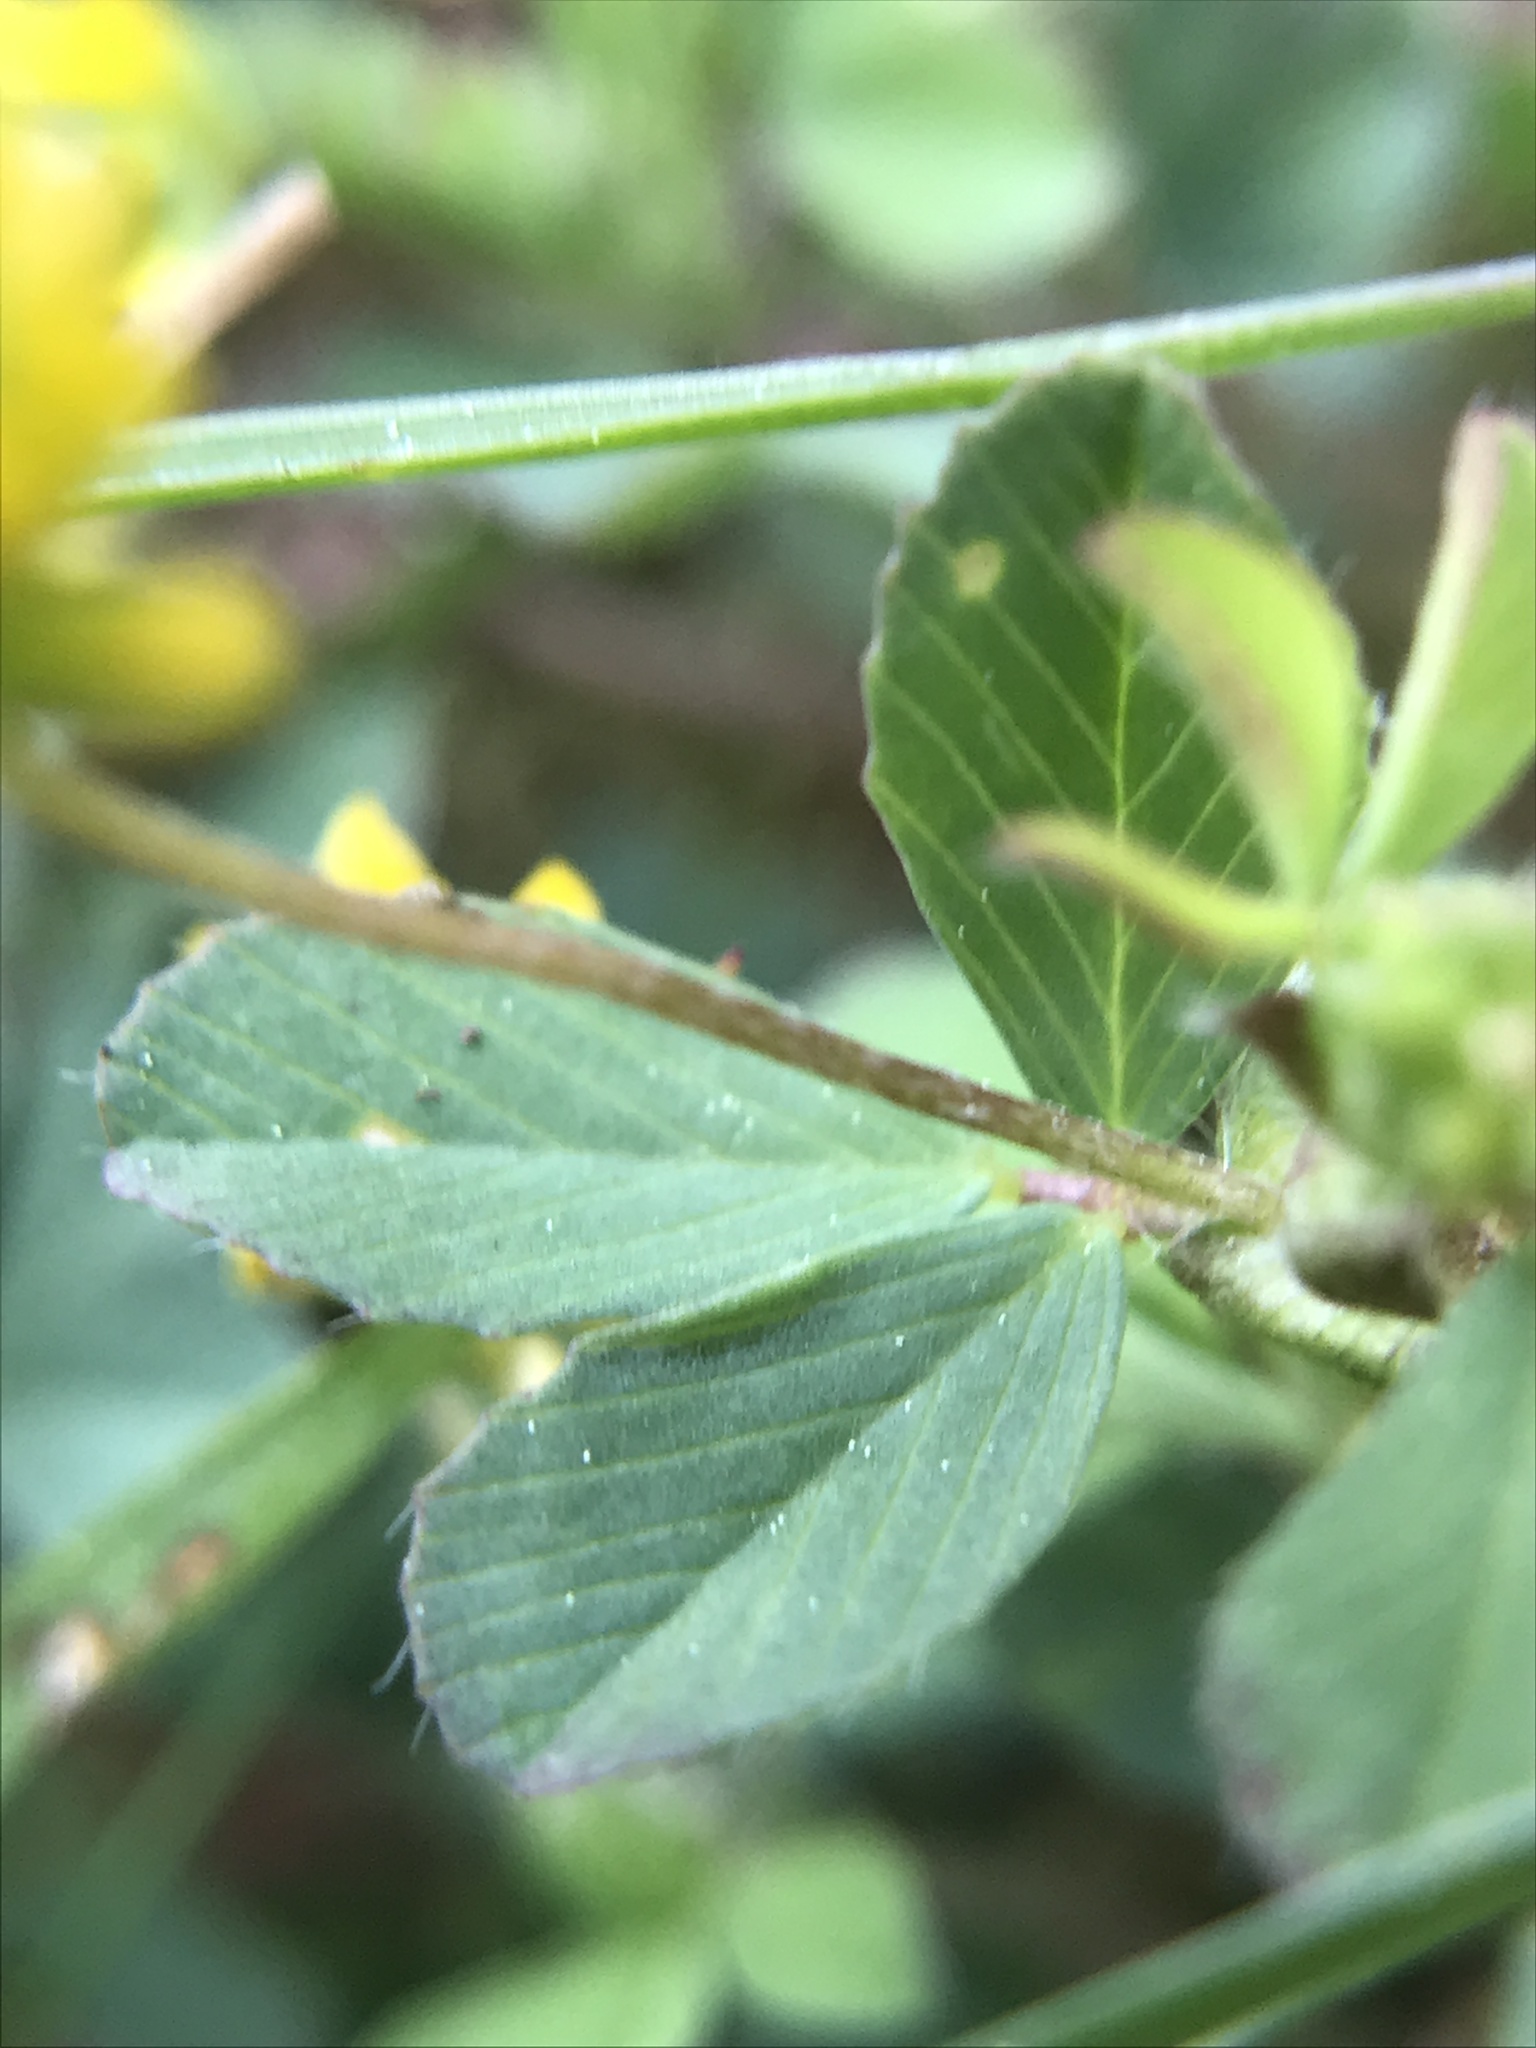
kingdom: Plantae
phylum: Tracheophyta
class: Magnoliopsida
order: Fabales
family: Fabaceae
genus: Trifolium
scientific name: Trifolium dubium
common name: Suckling clover
